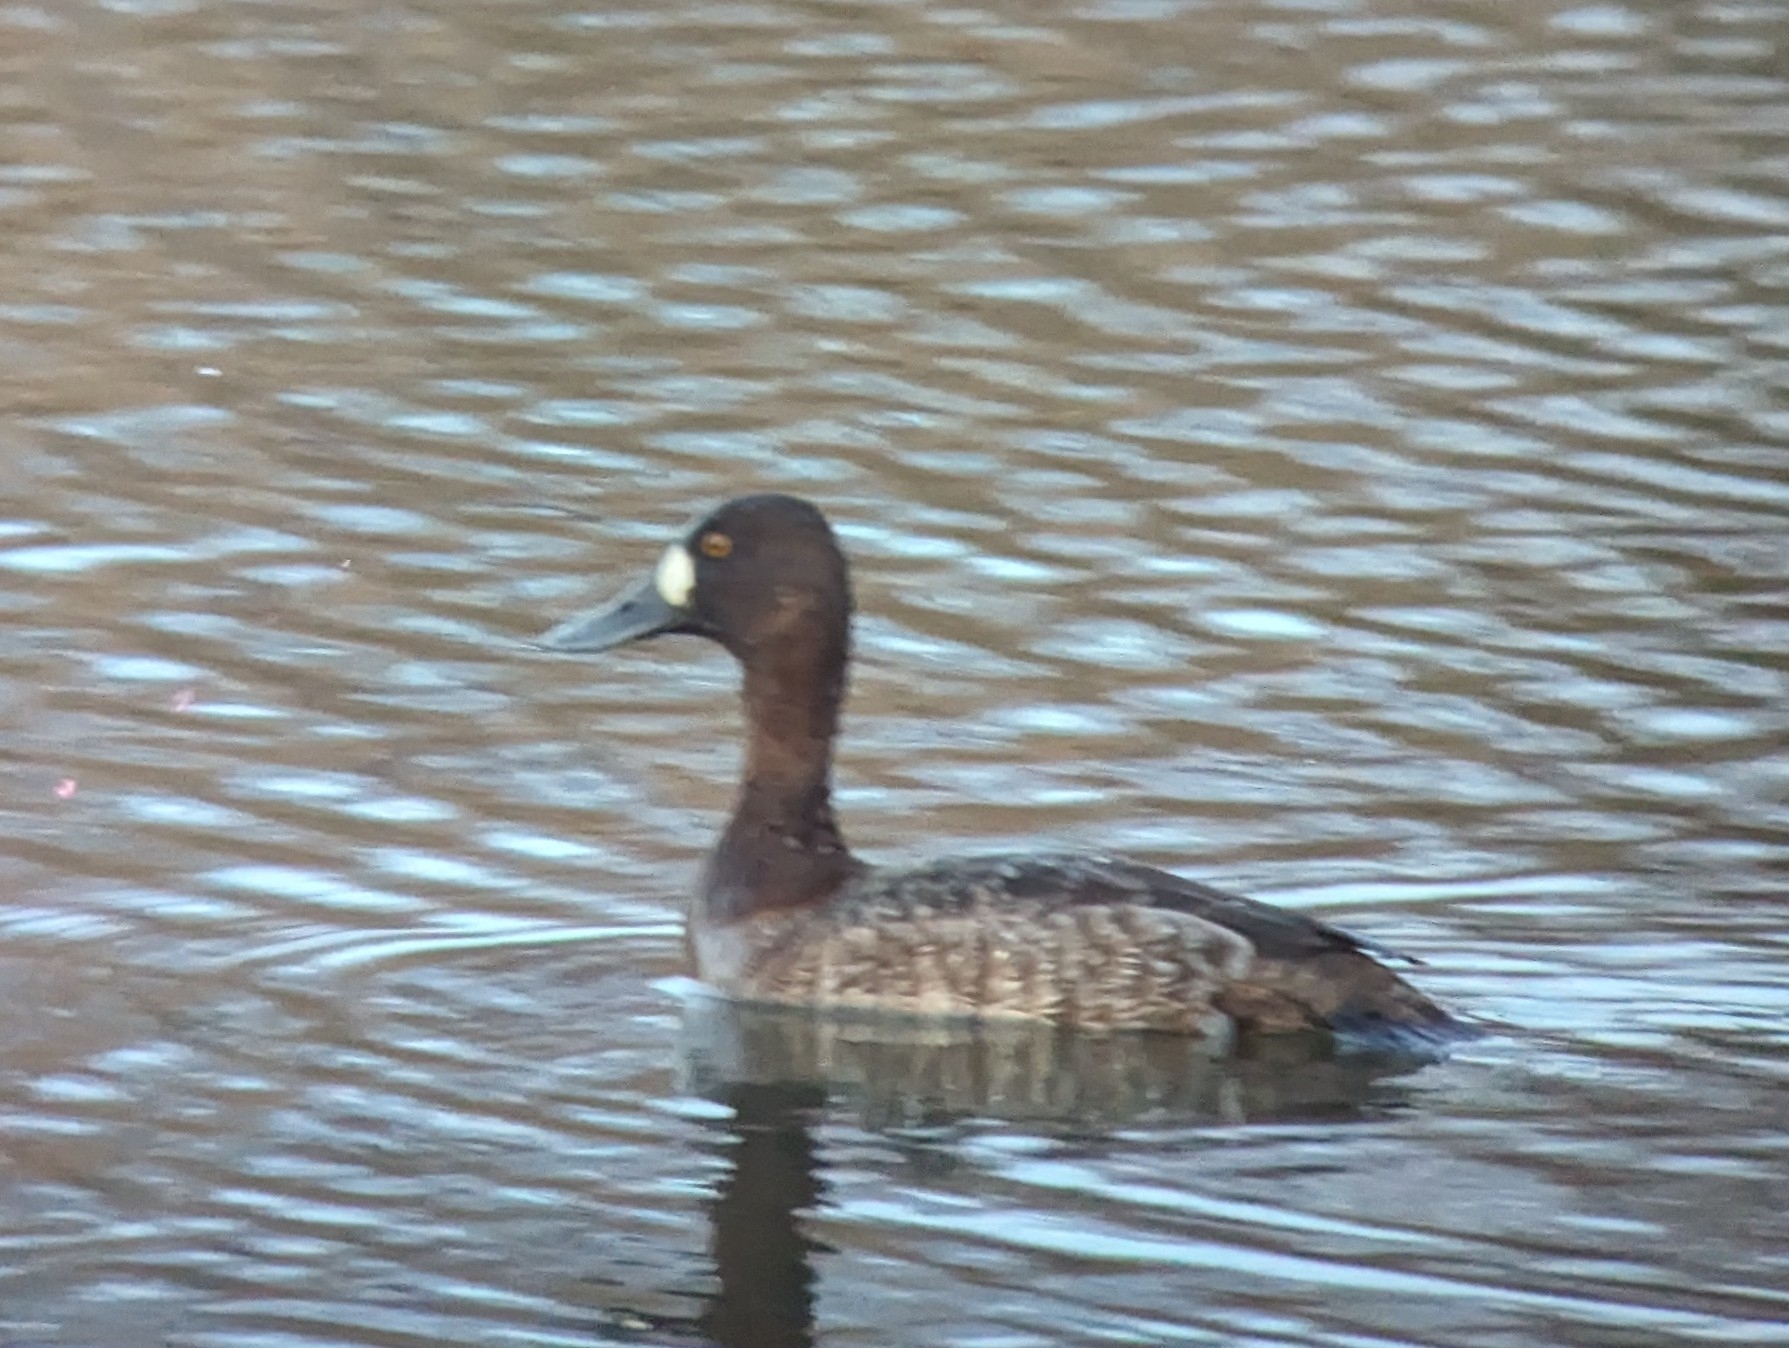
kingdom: Animalia
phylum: Chordata
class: Aves
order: Anseriformes
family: Anatidae
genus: Aythya
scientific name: Aythya affinis
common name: Lesser scaup
